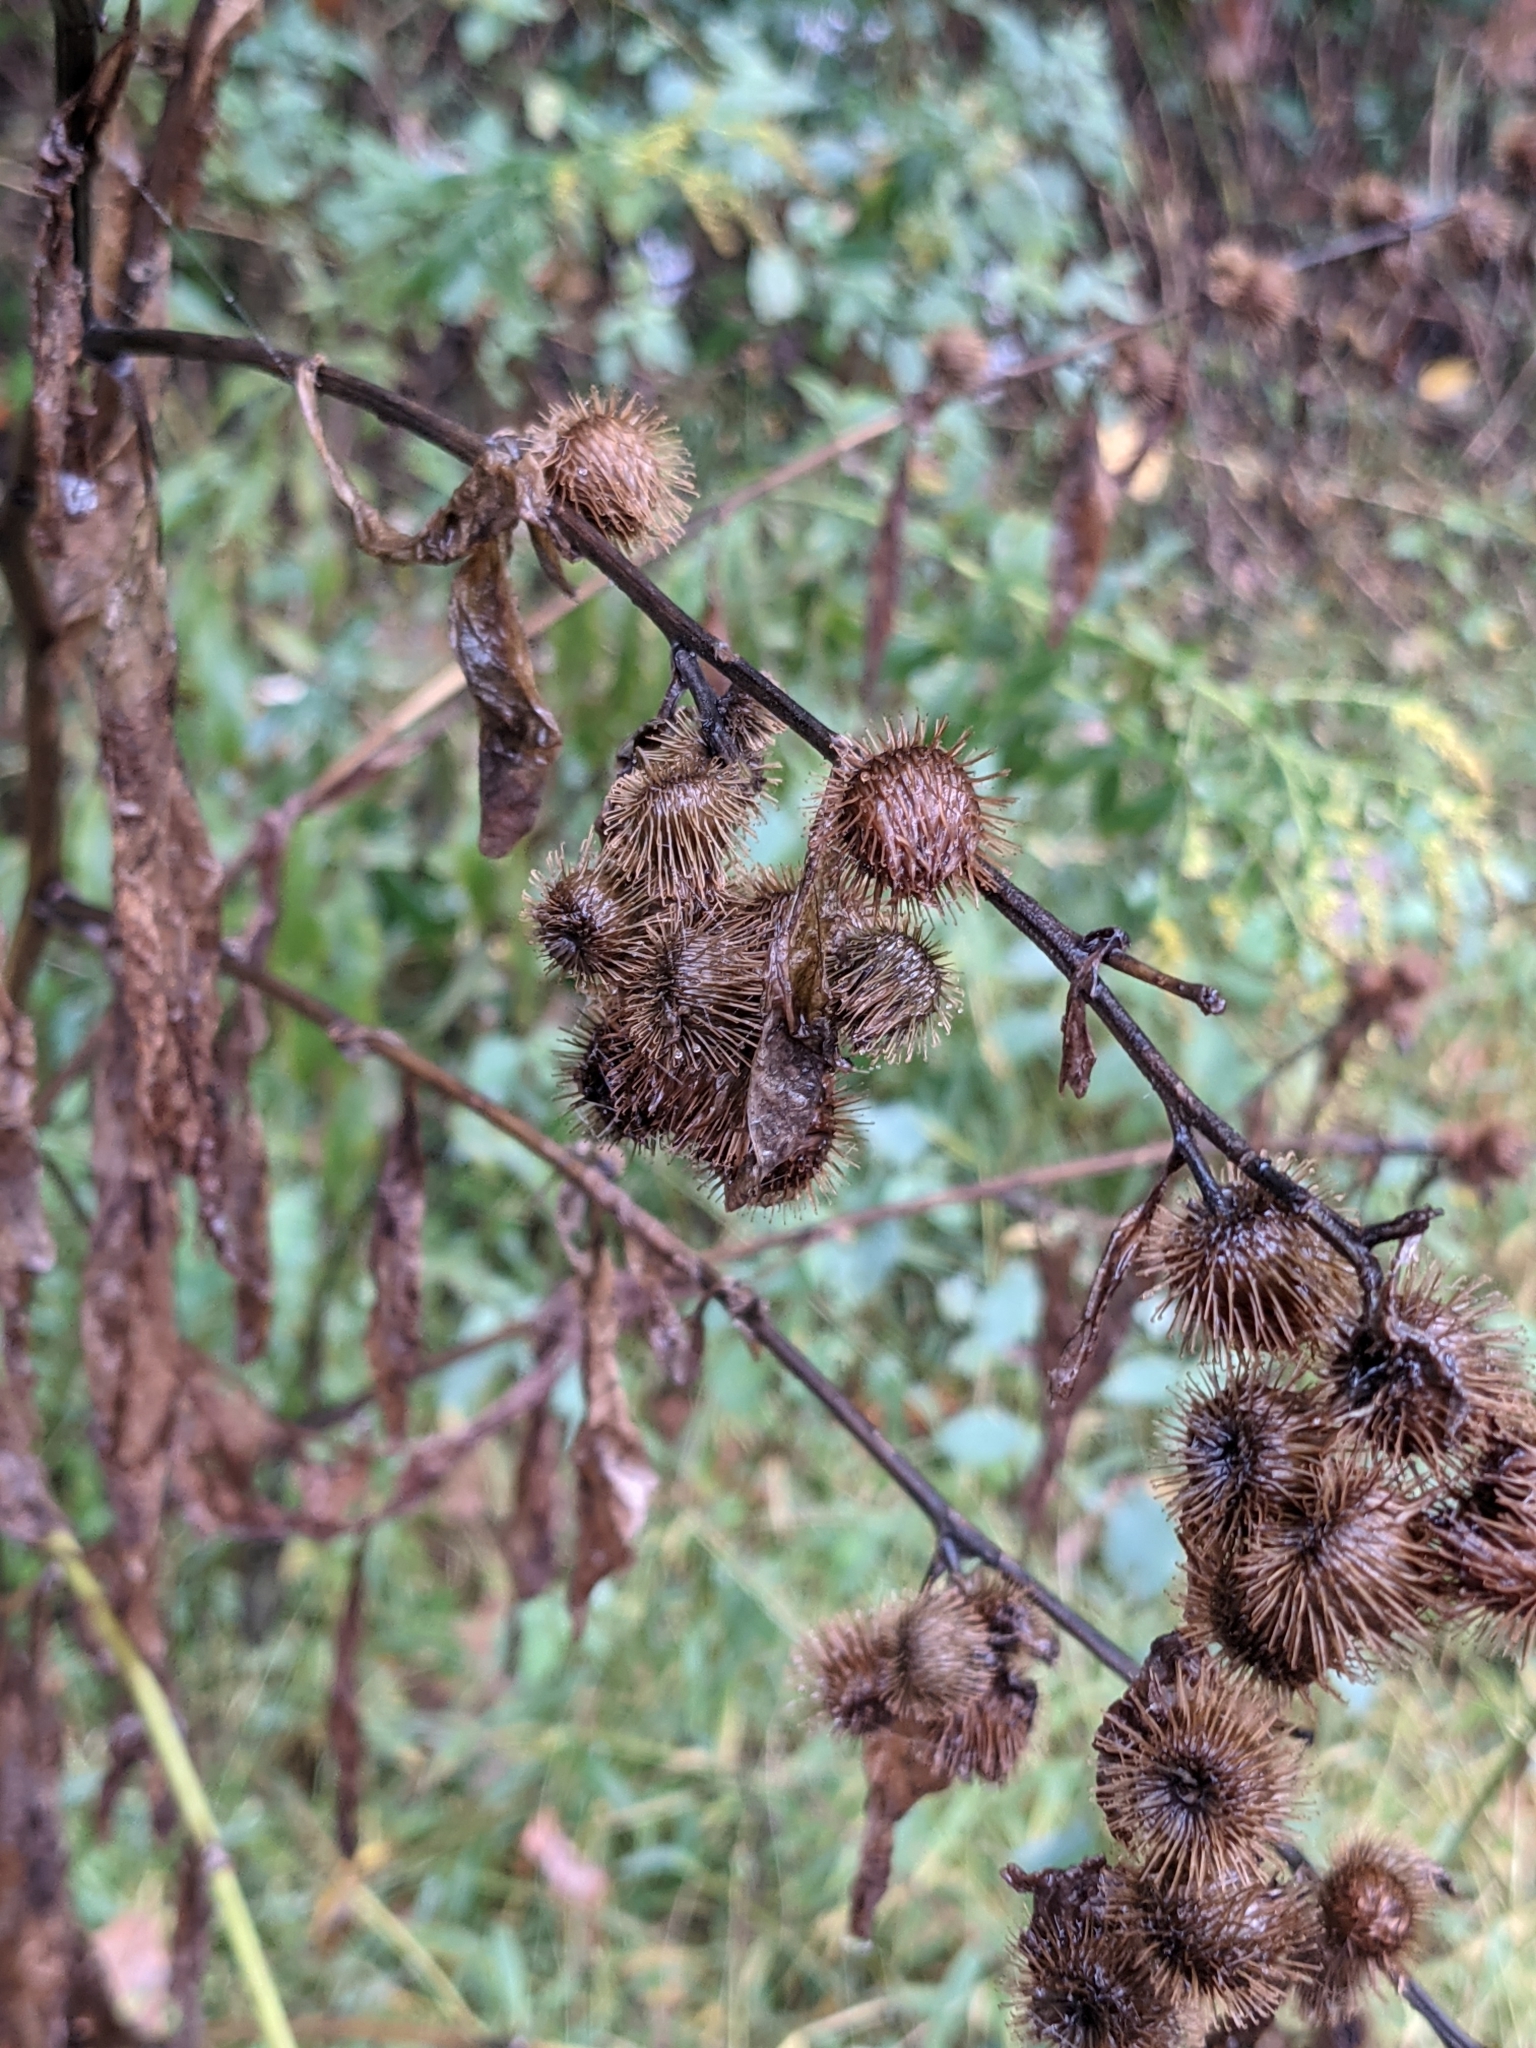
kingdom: Plantae
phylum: Tracheophyta
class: Magnoliopsida
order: Asterales
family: Asteraceae
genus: Arctium
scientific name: Arctium minus
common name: Lesser burdock
